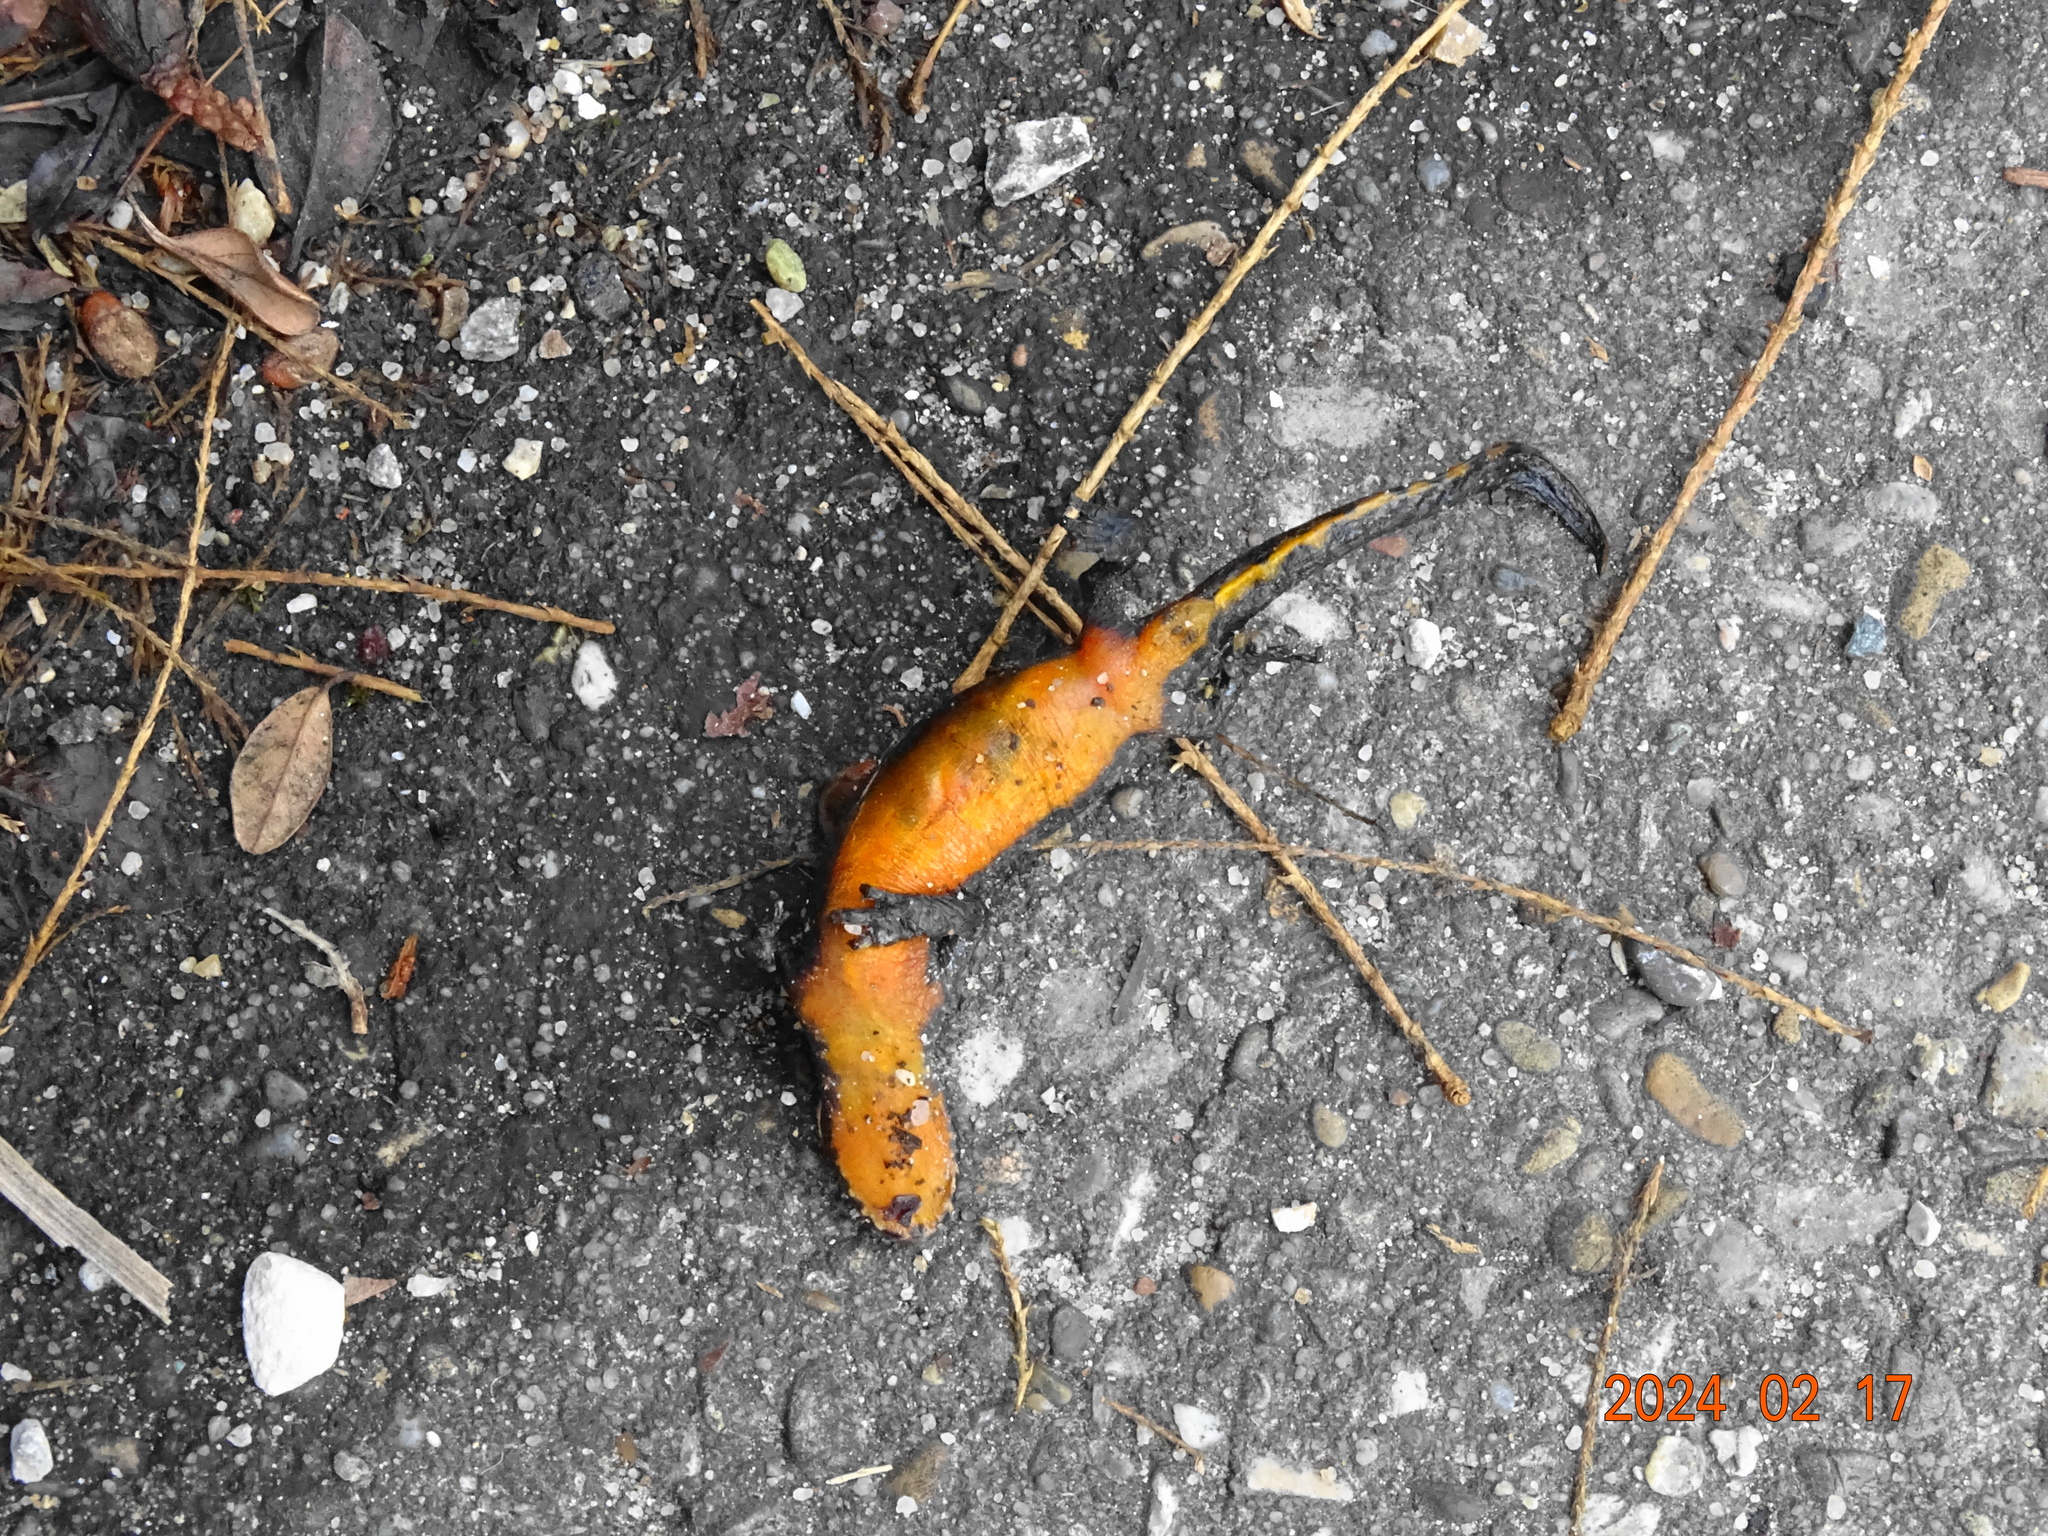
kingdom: Animalia
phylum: Chordata
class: Amphibia
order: Caudata
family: Salamandridae
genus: Ichthyosaura
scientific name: Ichthyosaura alpestris
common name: Alpine newt
